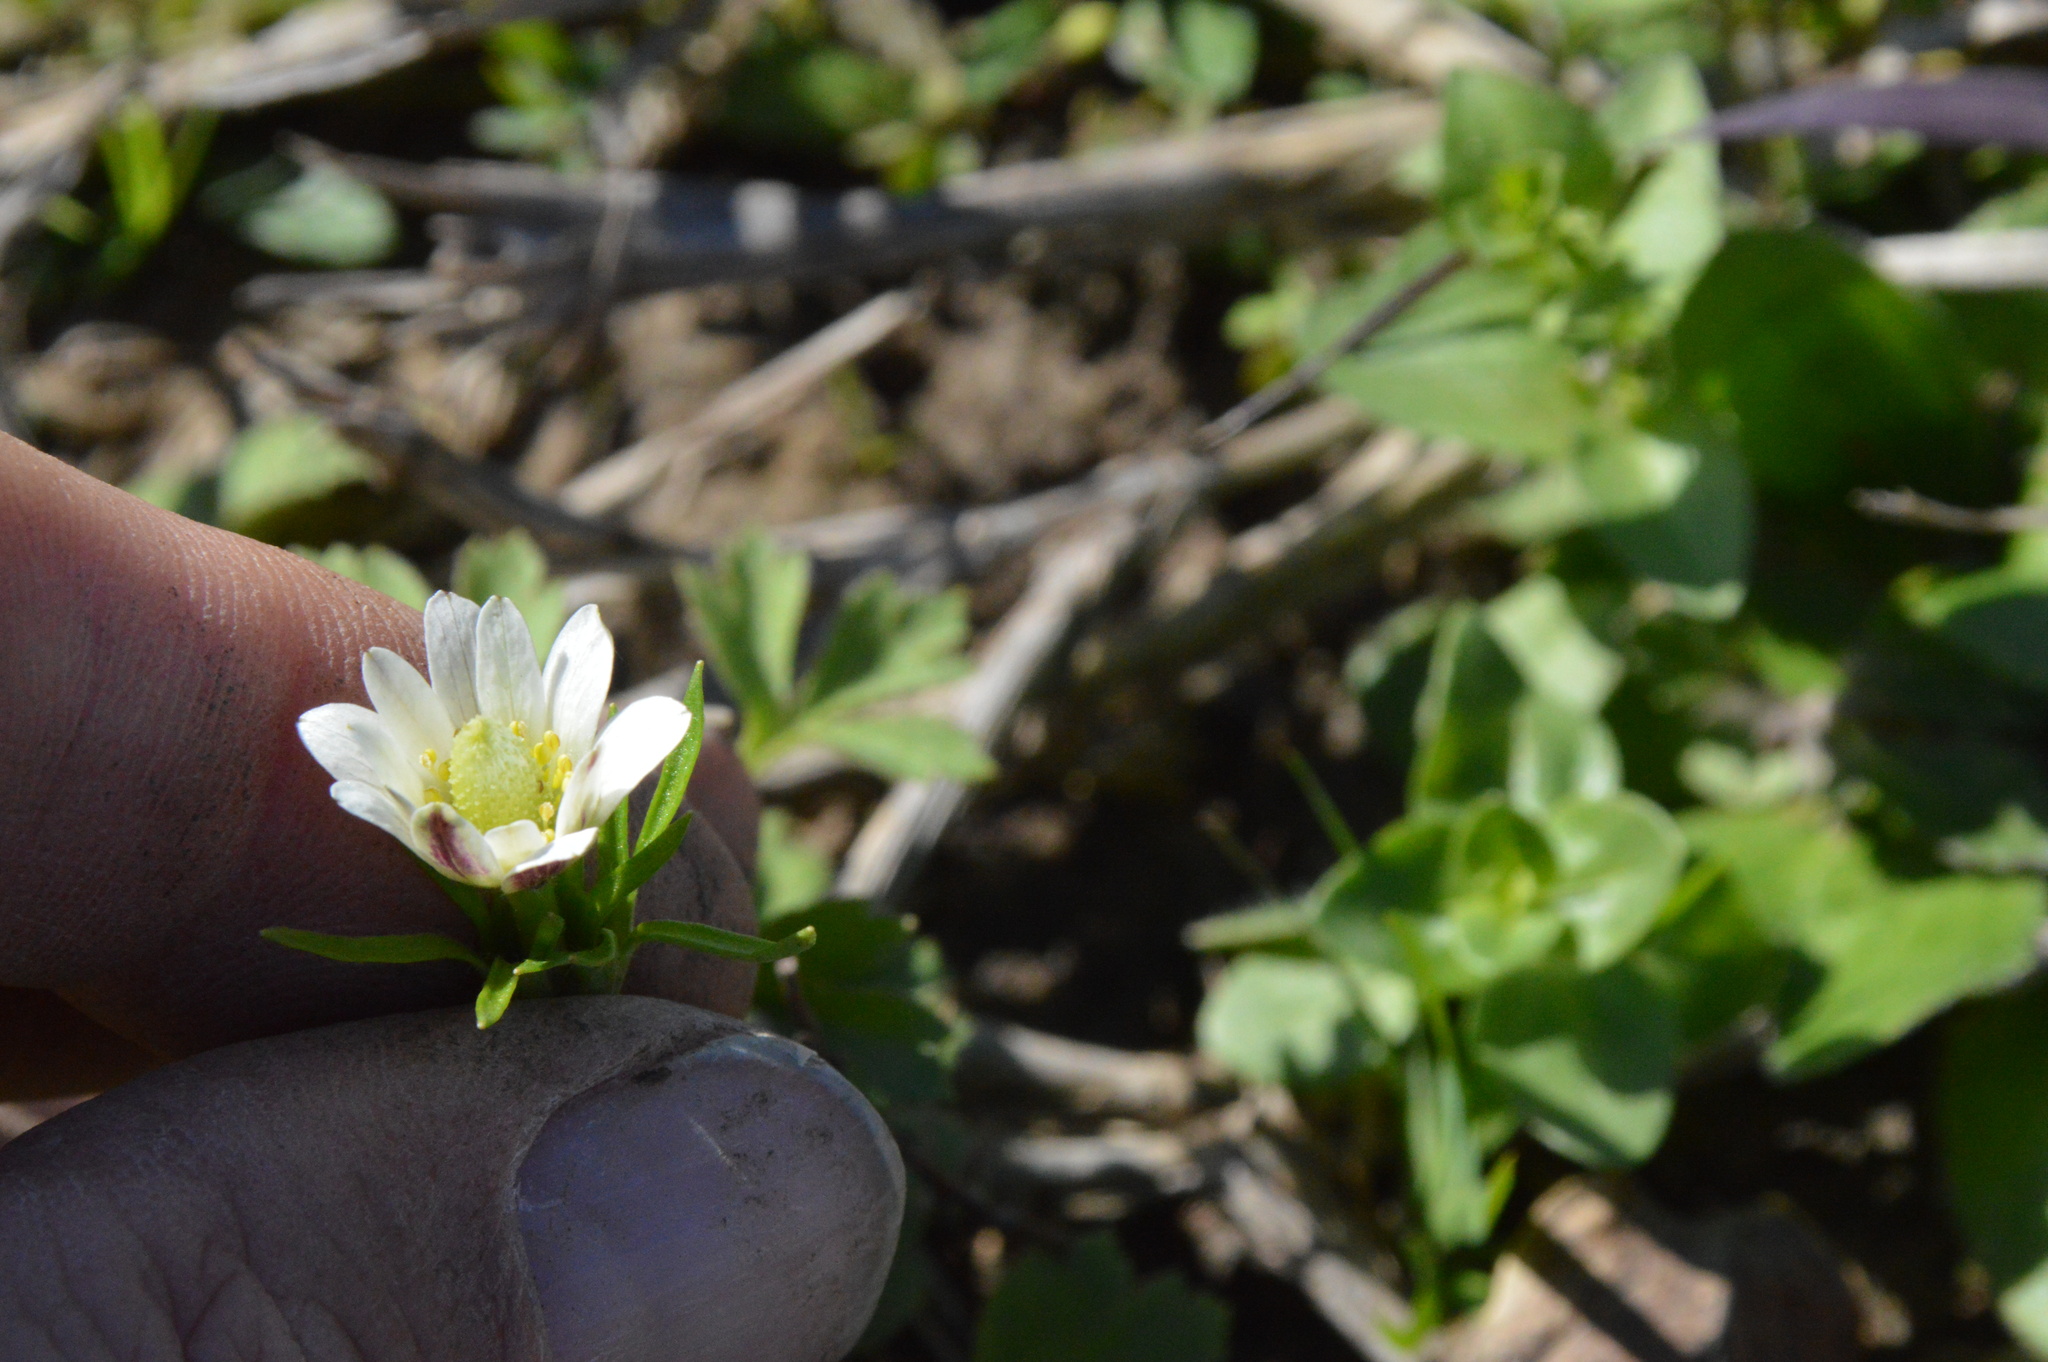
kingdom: Plantae
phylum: Tracheophyta
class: Magnoliopsida
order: Ranunculales
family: Ranunculaceae
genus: Anemone
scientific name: Anemone berlandieri
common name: Ten-petal anemone
